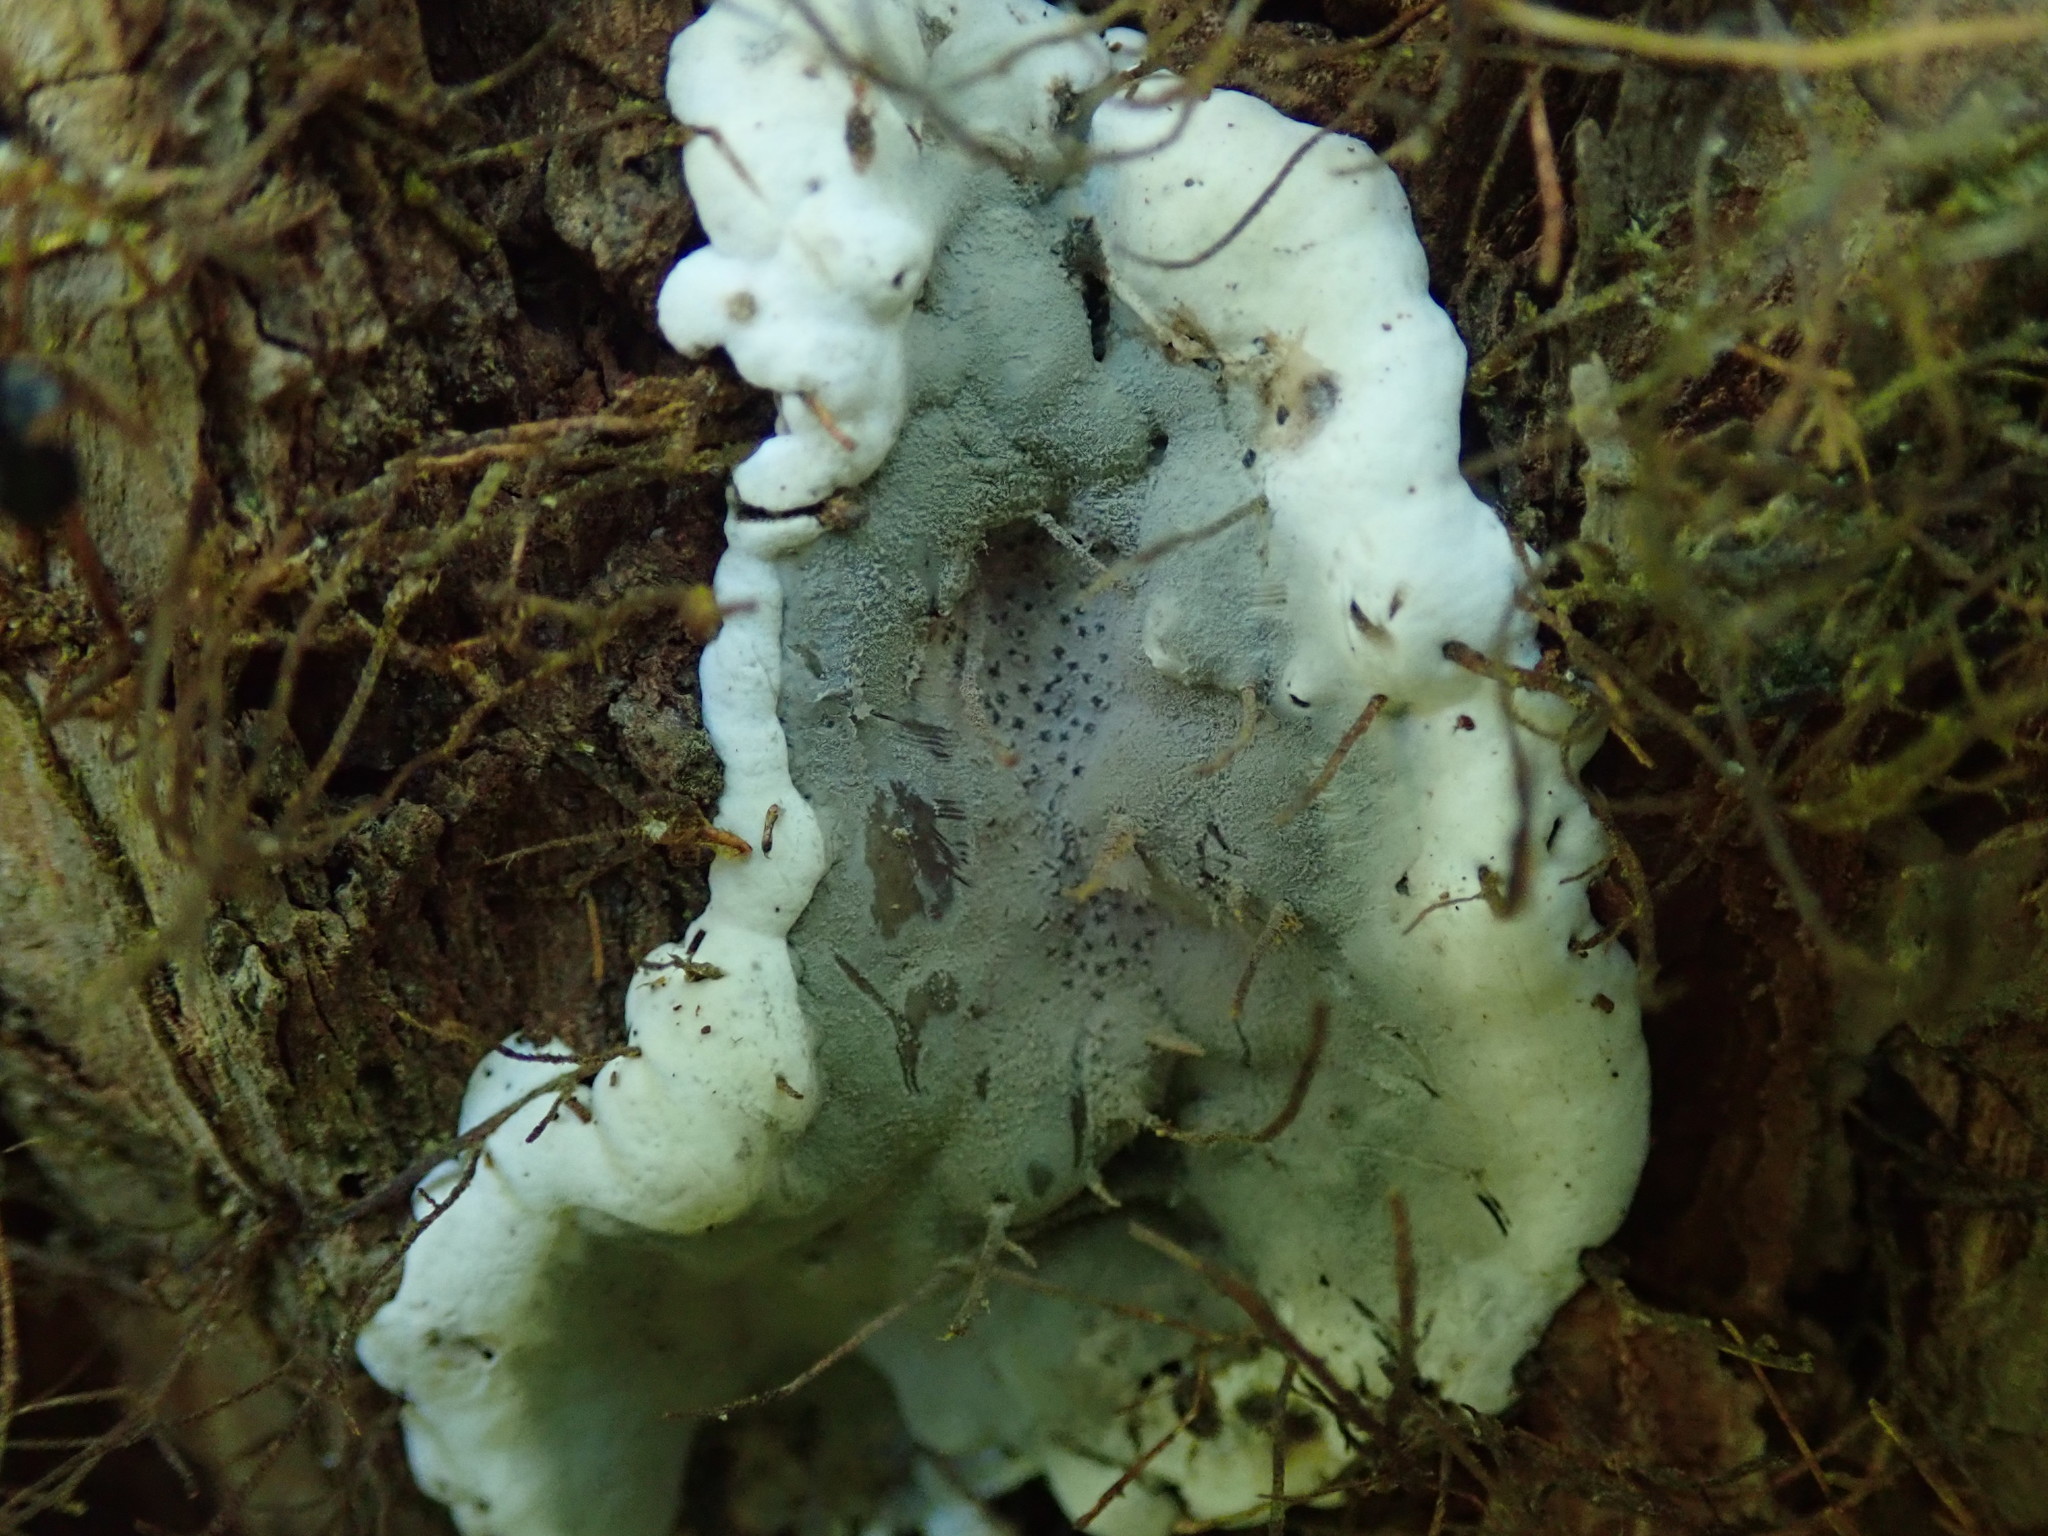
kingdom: Fungi
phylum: Ascomycota
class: Sordariomycetes
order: Xylariales
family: Xylariaceae
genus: Kretzschmaria
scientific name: Kretzschmaria deusta
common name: Brittle cinder
